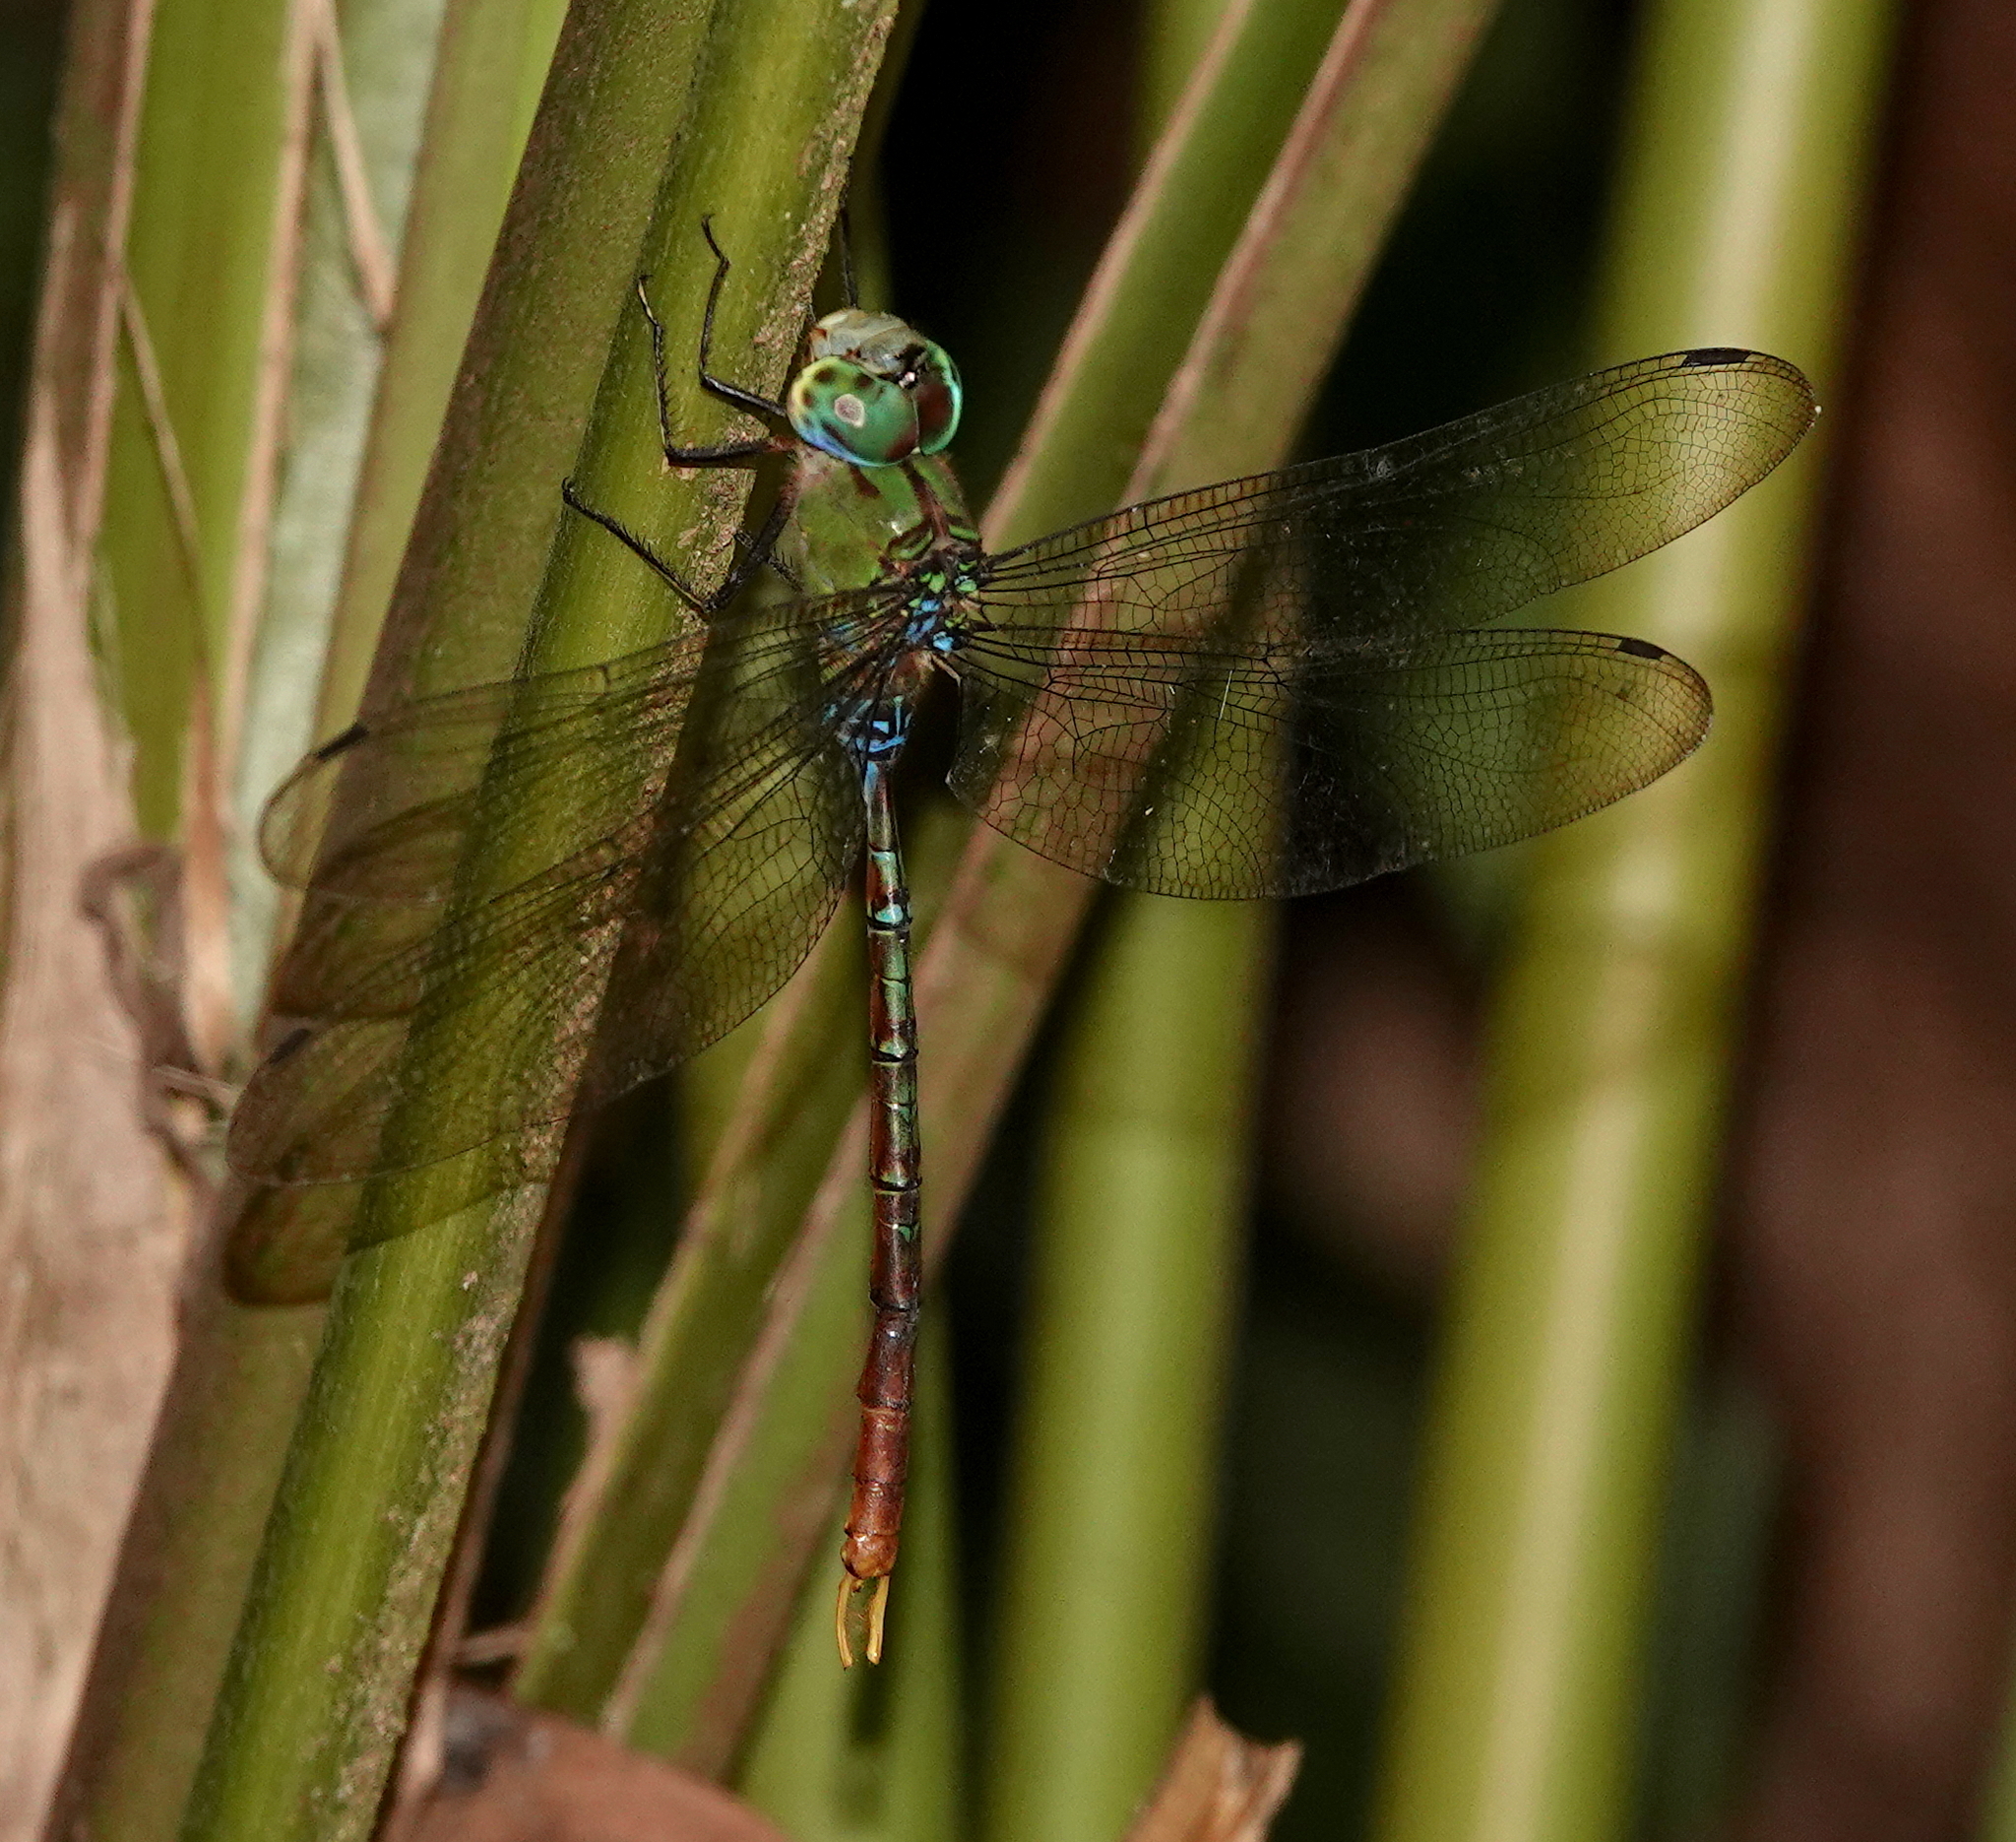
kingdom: Animalia
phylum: Arthropoda
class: Insecta
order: Odonata
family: Aeshnidae
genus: Gynacantha
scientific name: Gynacantha tibiata
